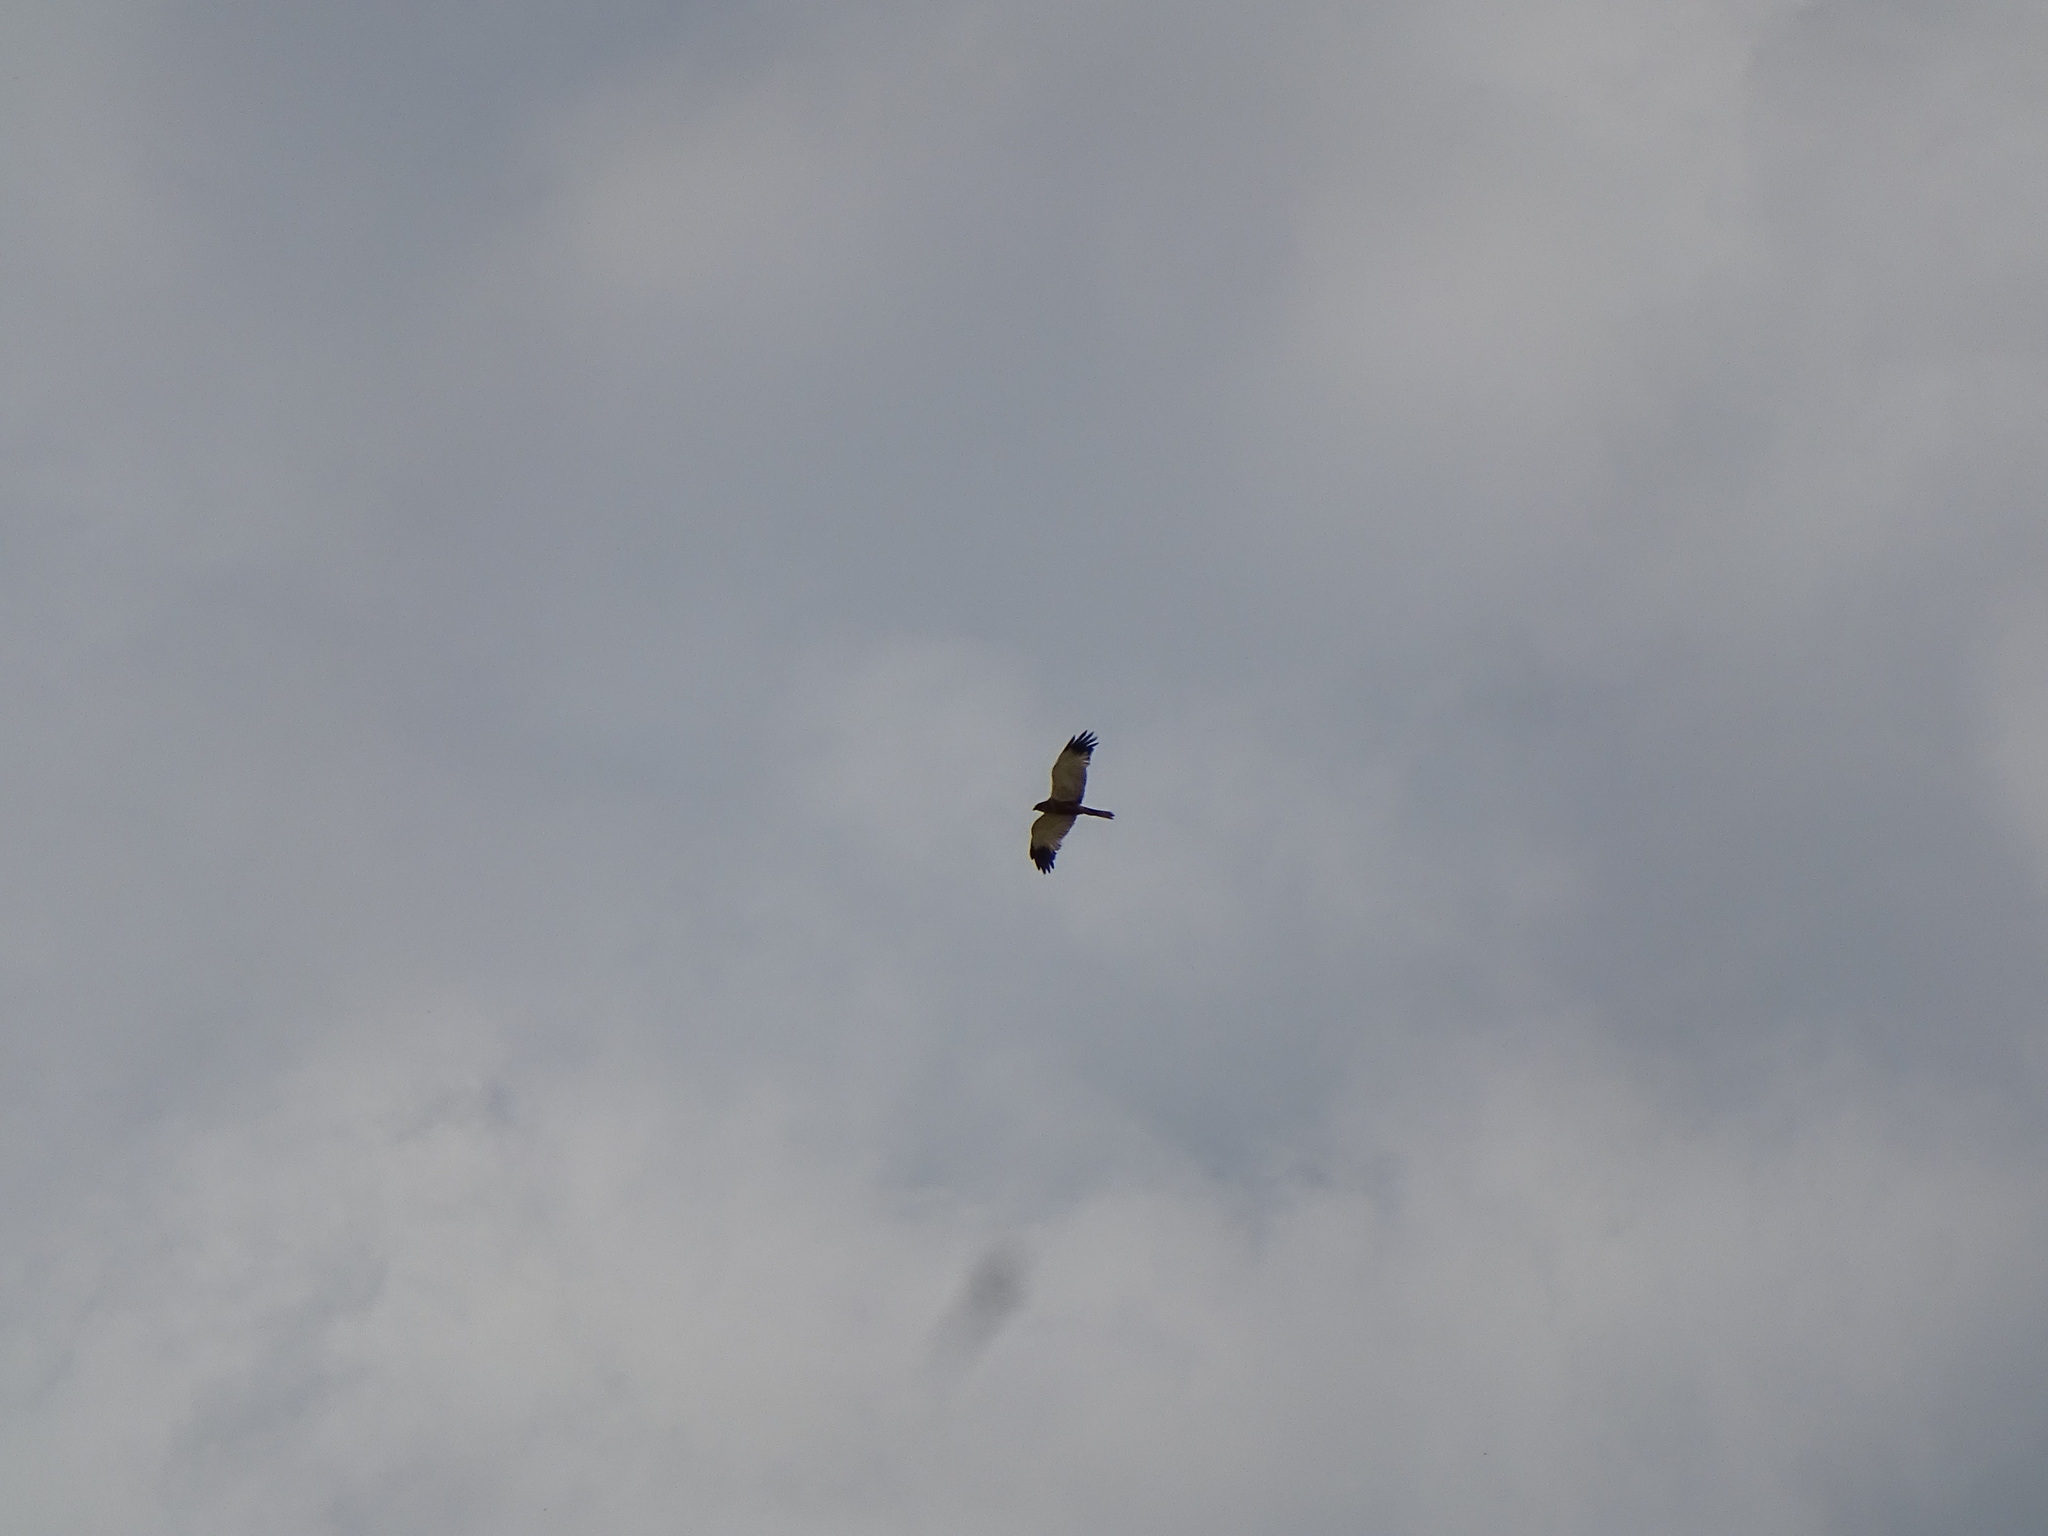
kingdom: Animalia
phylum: Chordata
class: Aves
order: Accipitriformes
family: Accipitridae
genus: Circus
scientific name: Circus aeruginosus
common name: Western marsh harrier
